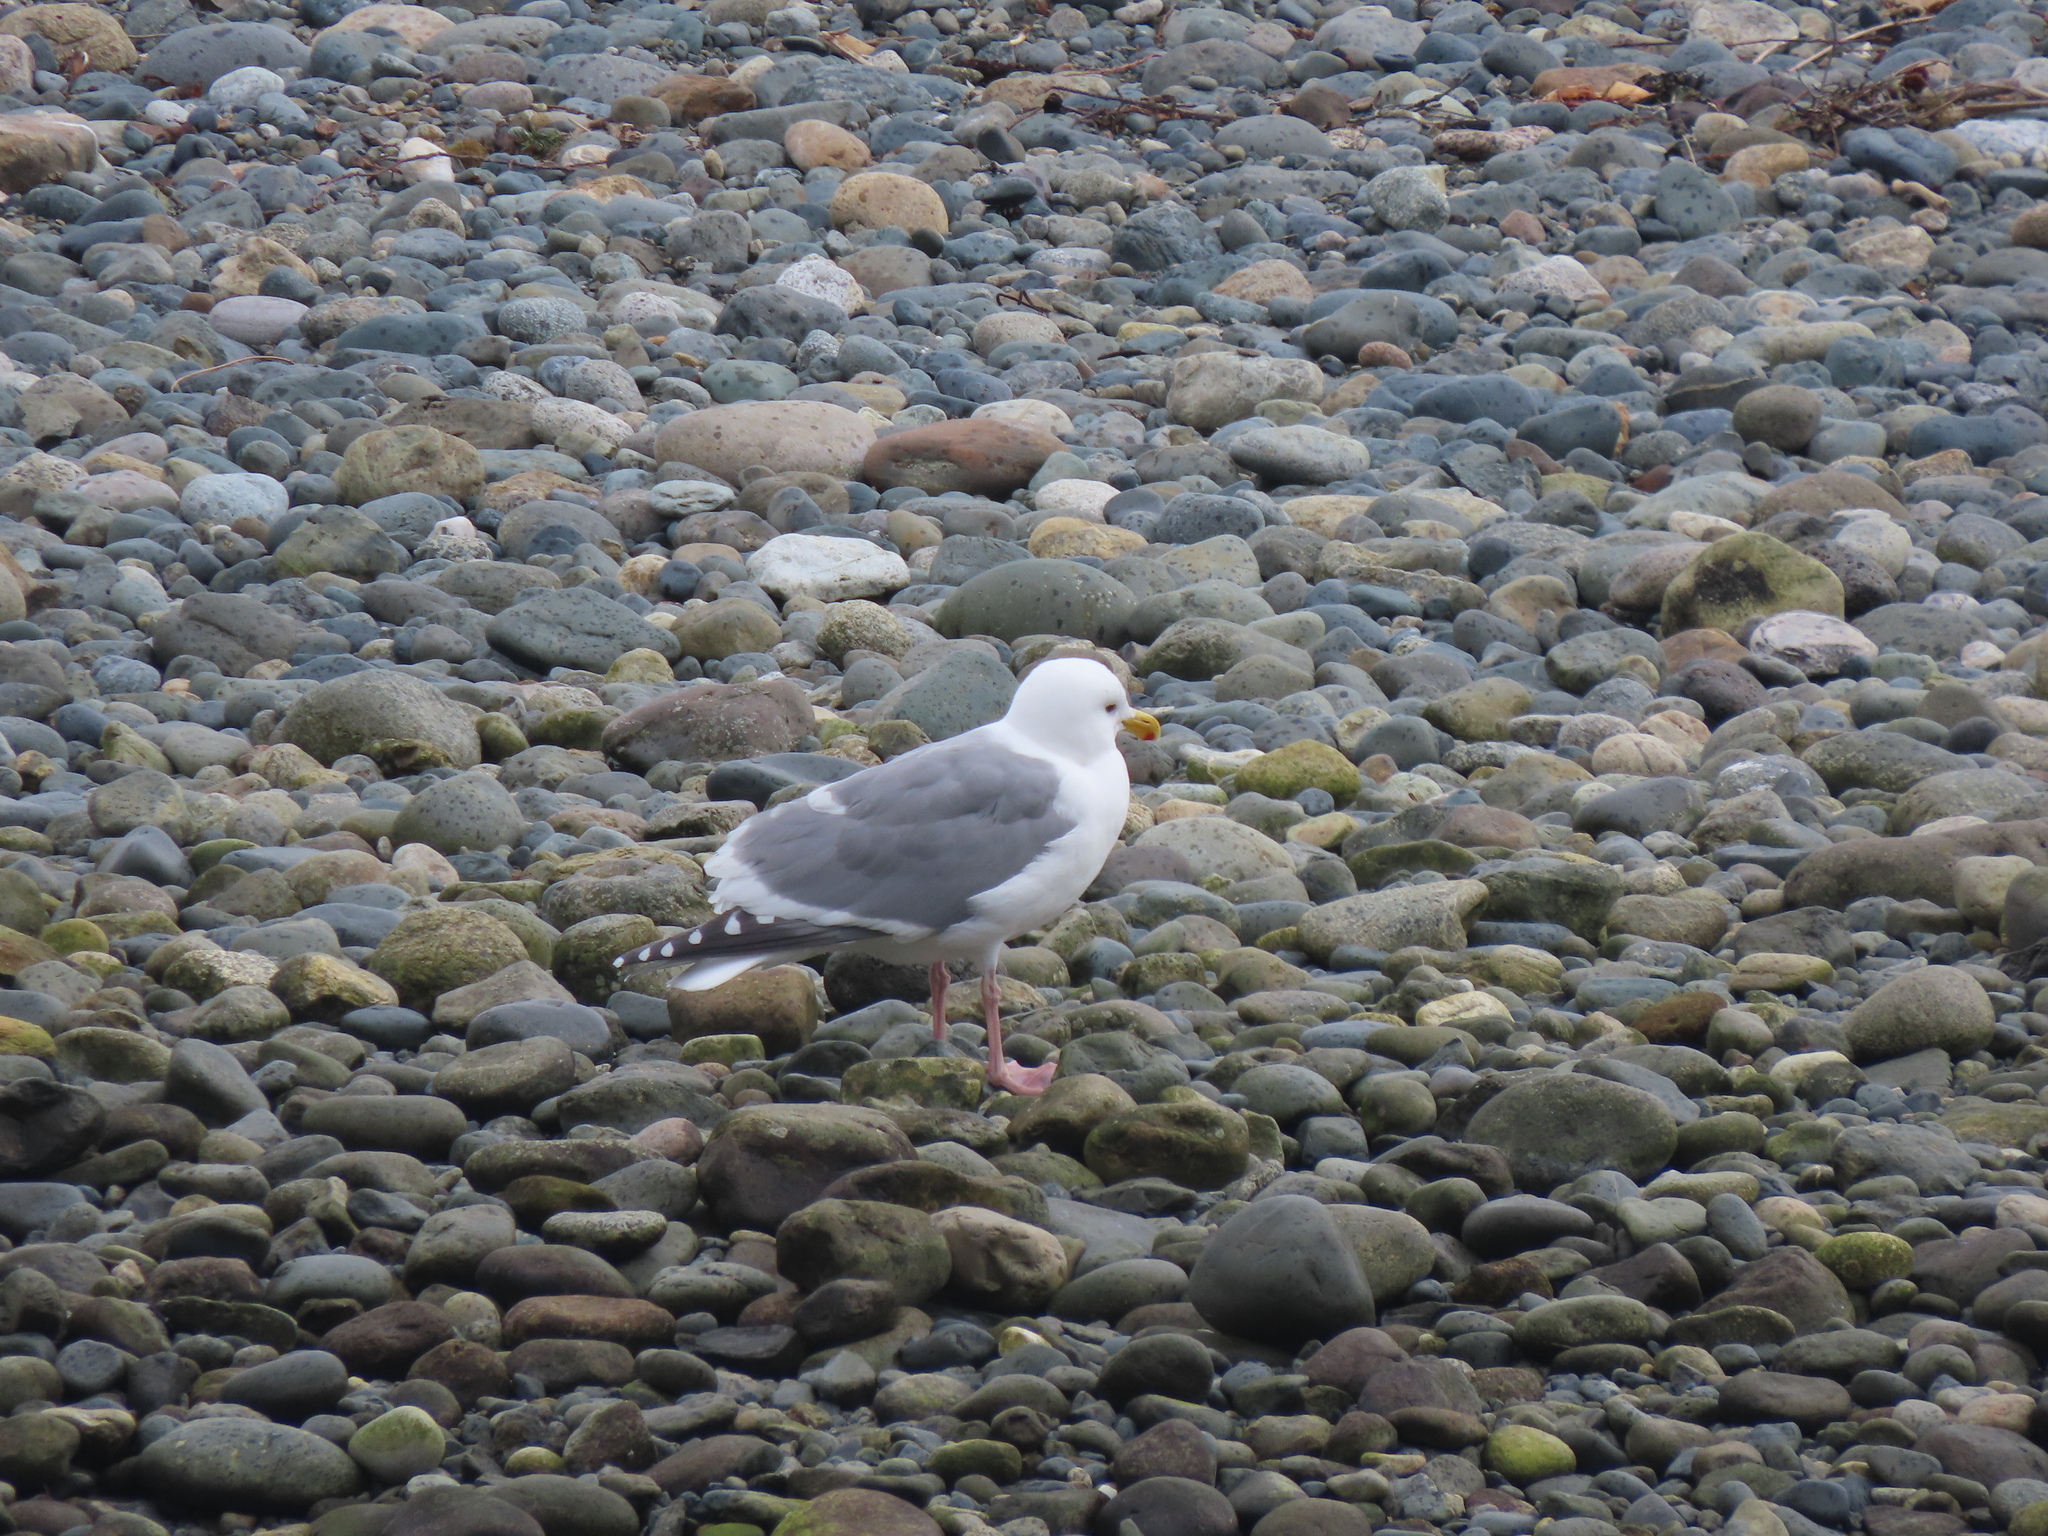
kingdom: Animalia
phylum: Chordata
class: Aves
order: Charadriiformes
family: Laridae
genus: Larus
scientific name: Larus
